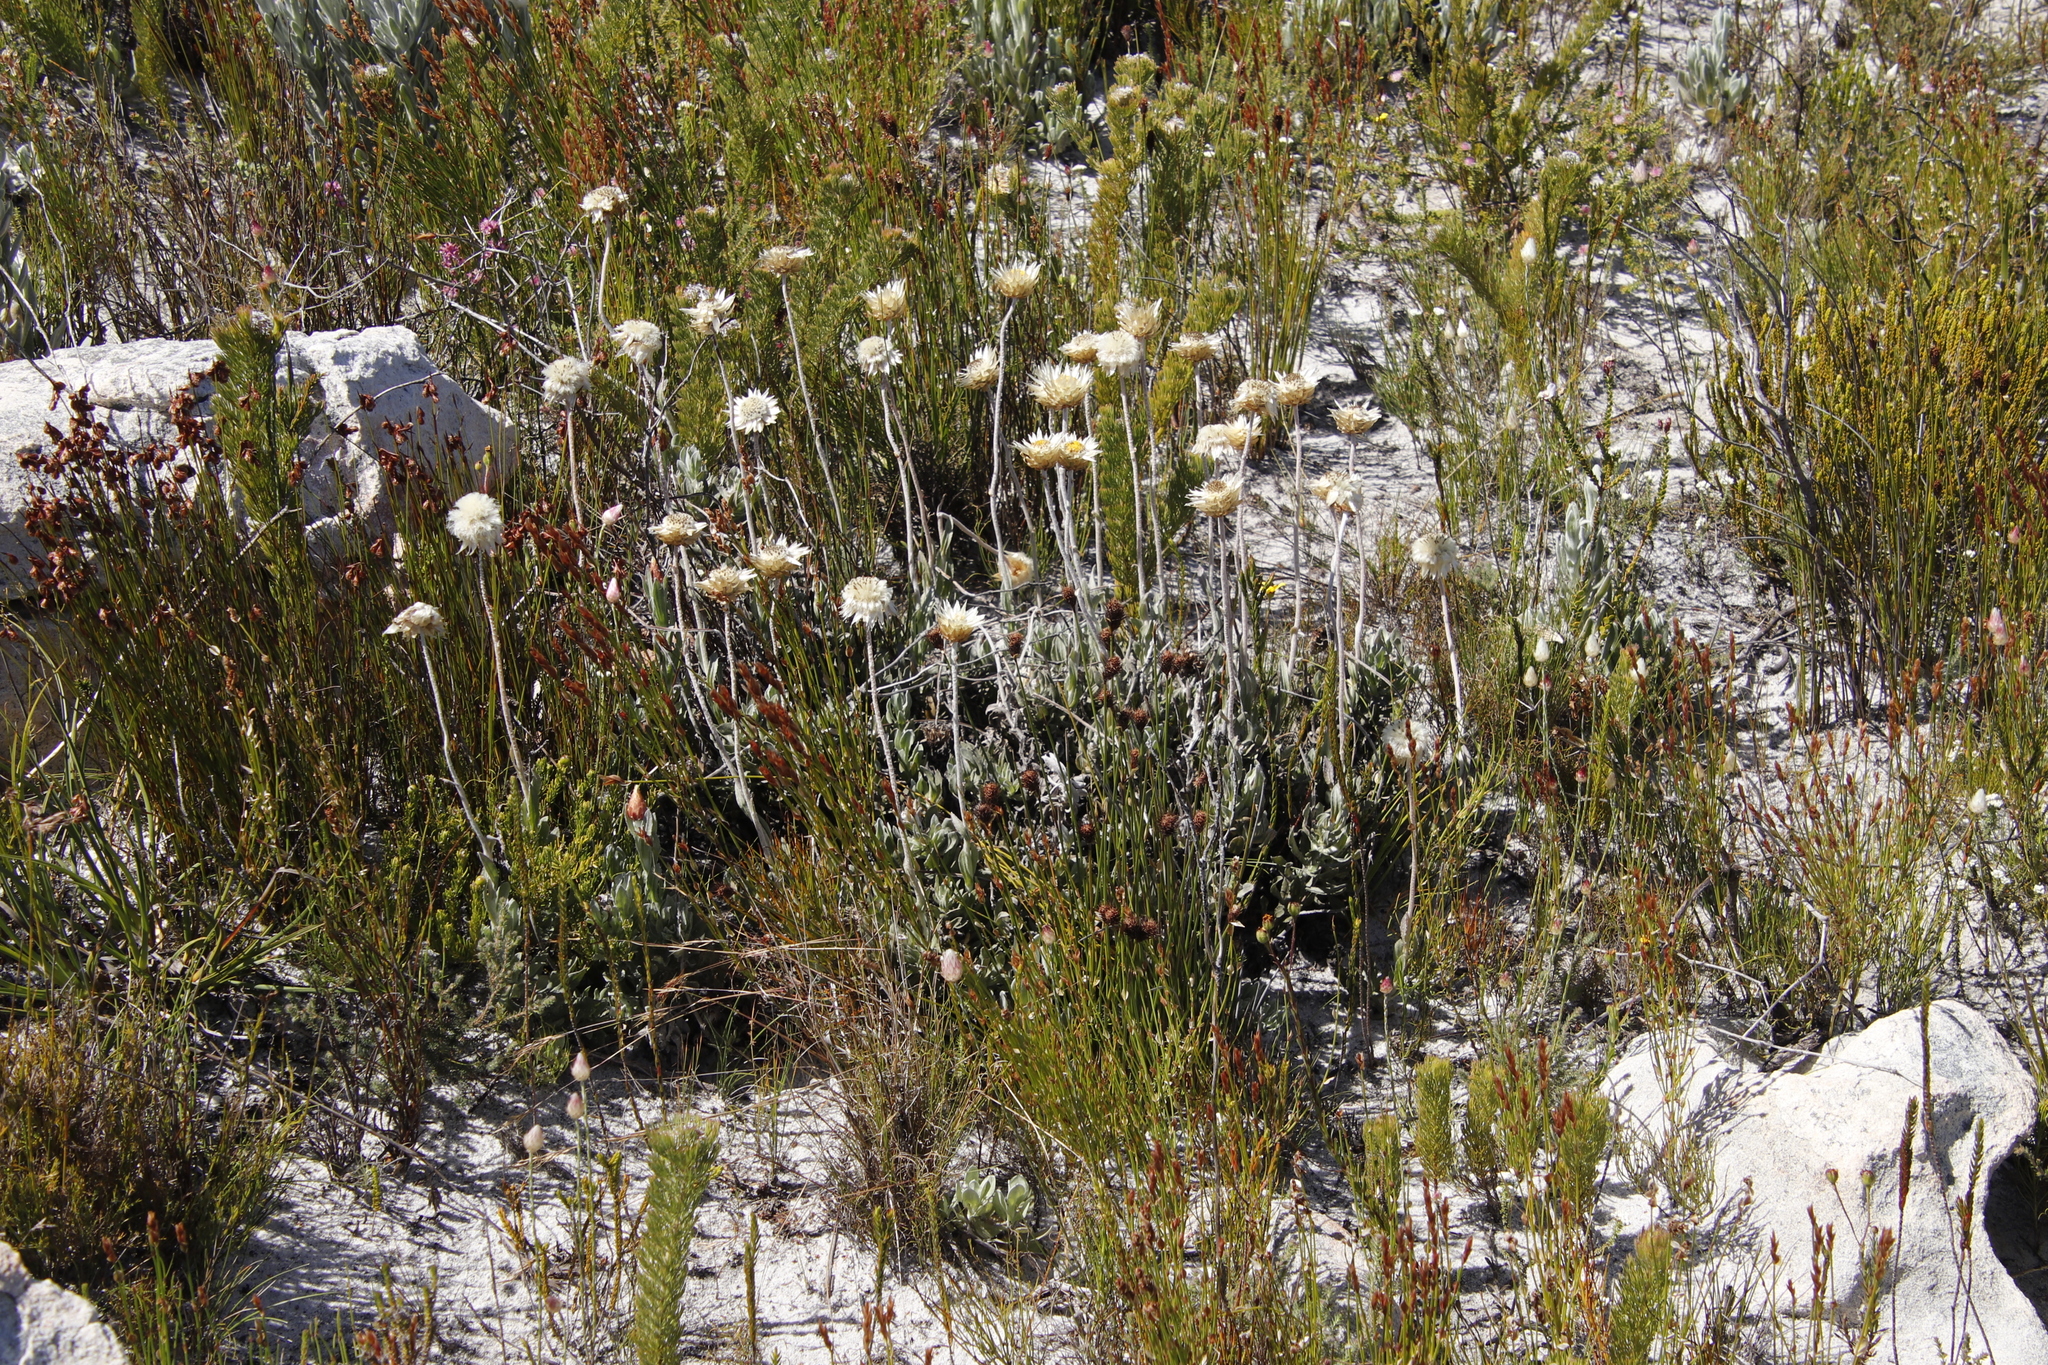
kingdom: Plantae
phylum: Tracheophyta
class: Magnoliopsida
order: Asterales
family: Asteraceae
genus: Syncarpha
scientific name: Syncarpha speciosissima
